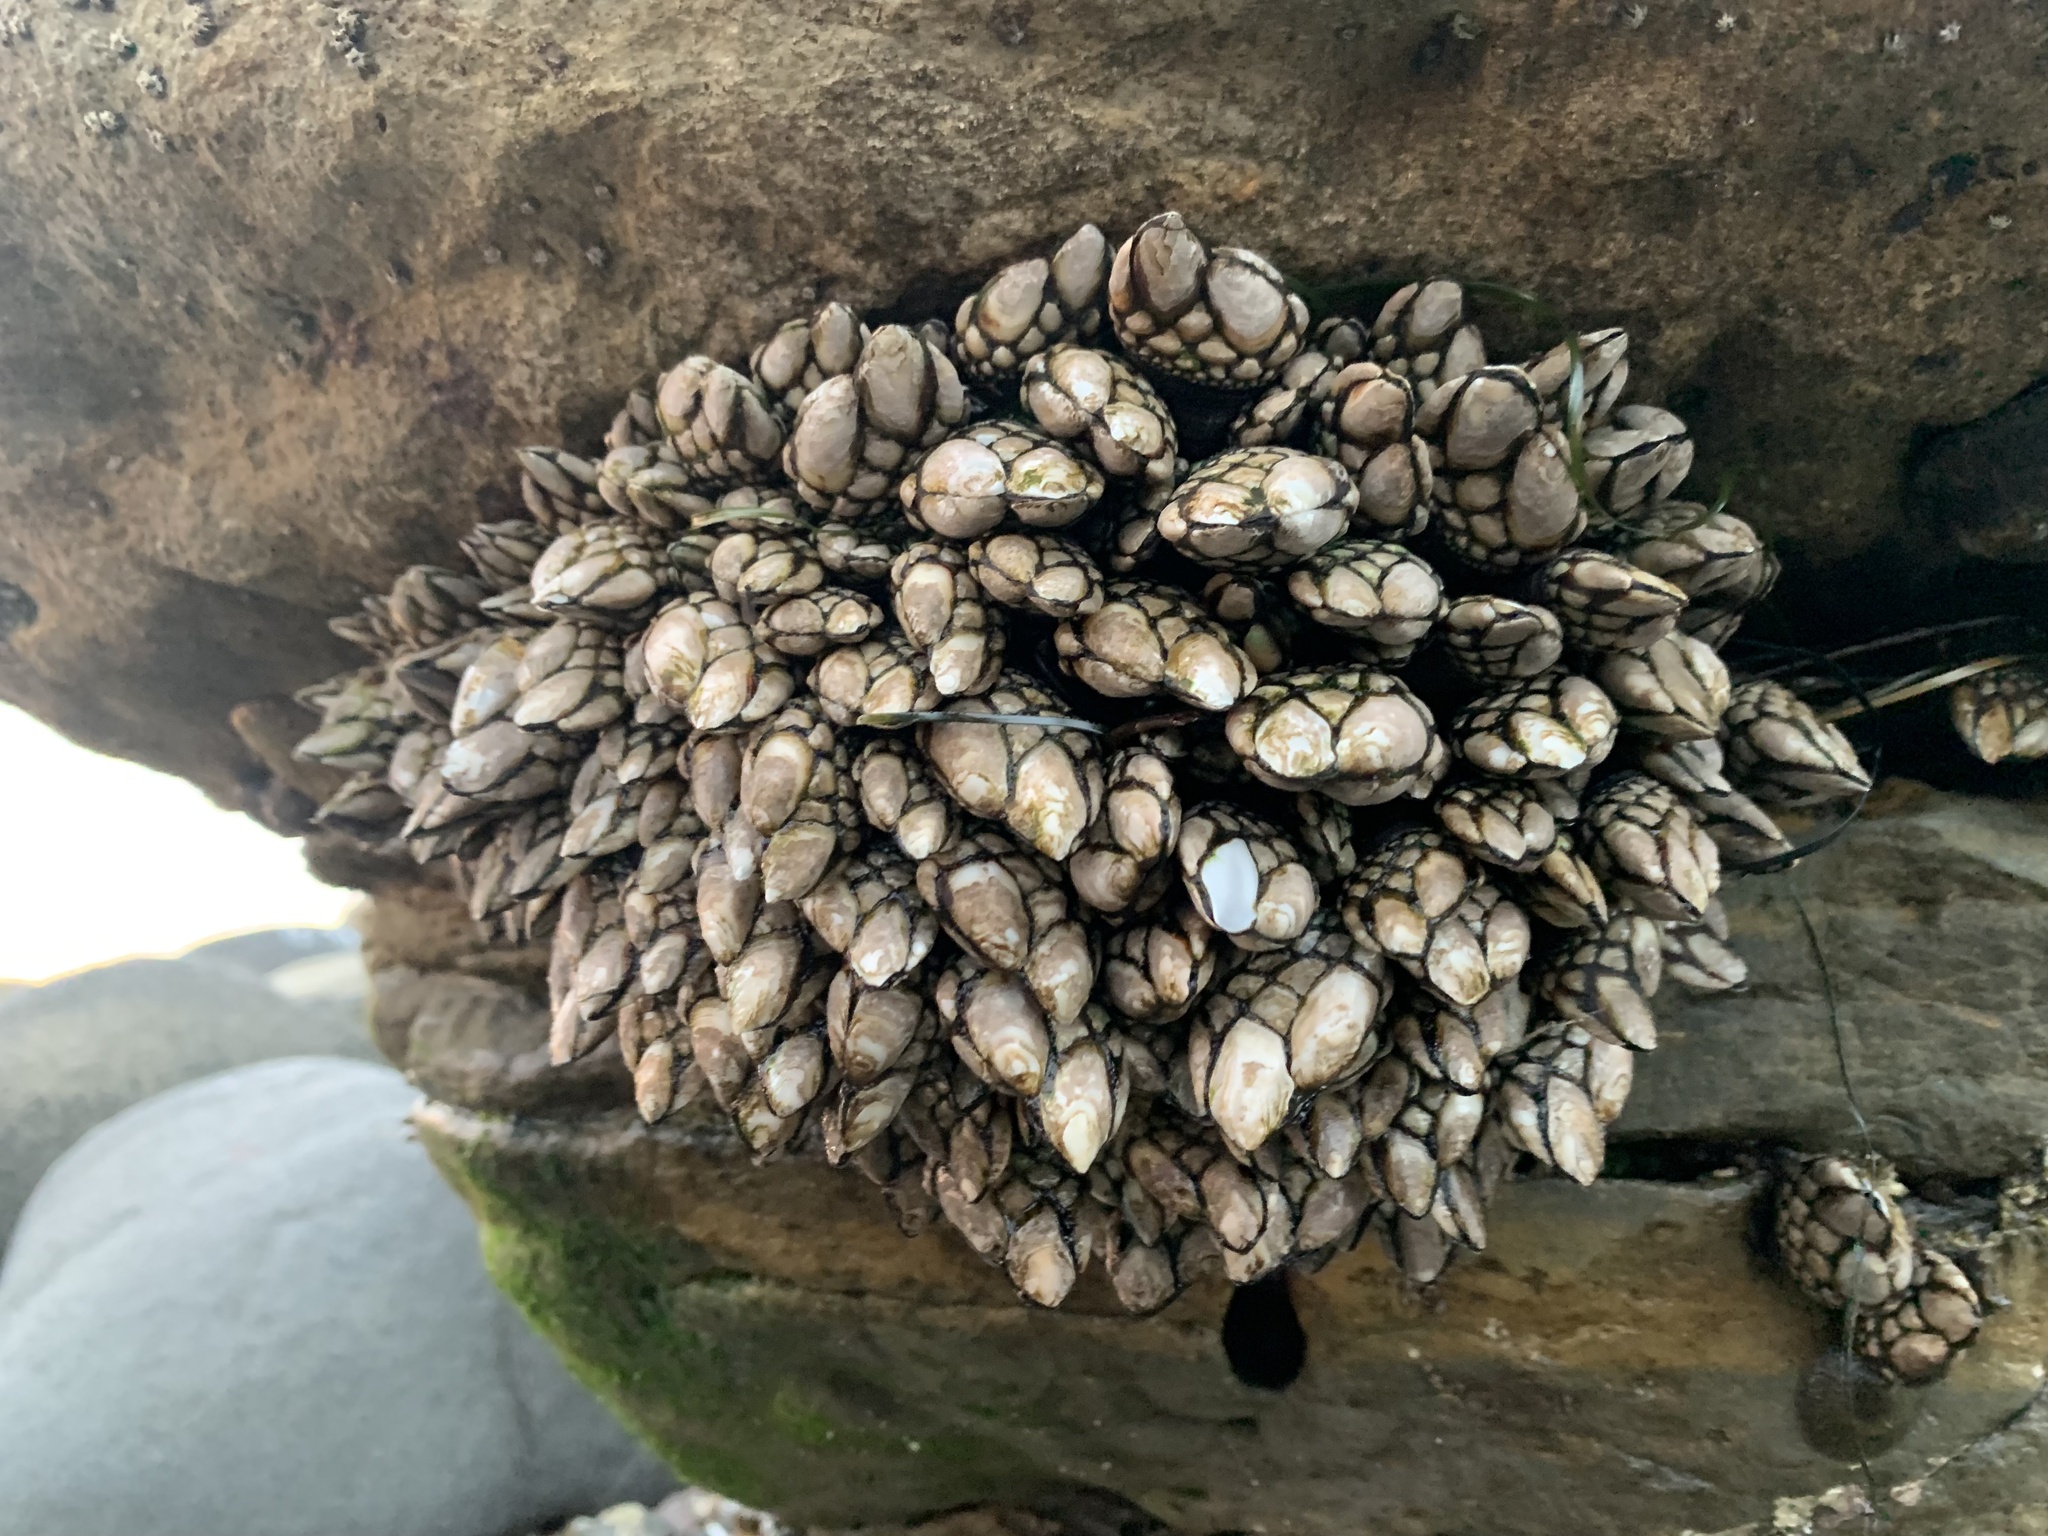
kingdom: Animalia
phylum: Arthropoda
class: Maxillopoda
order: Pedunculata
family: Pollicipedidae
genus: Pollicipes
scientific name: Pollicipes polymerus
